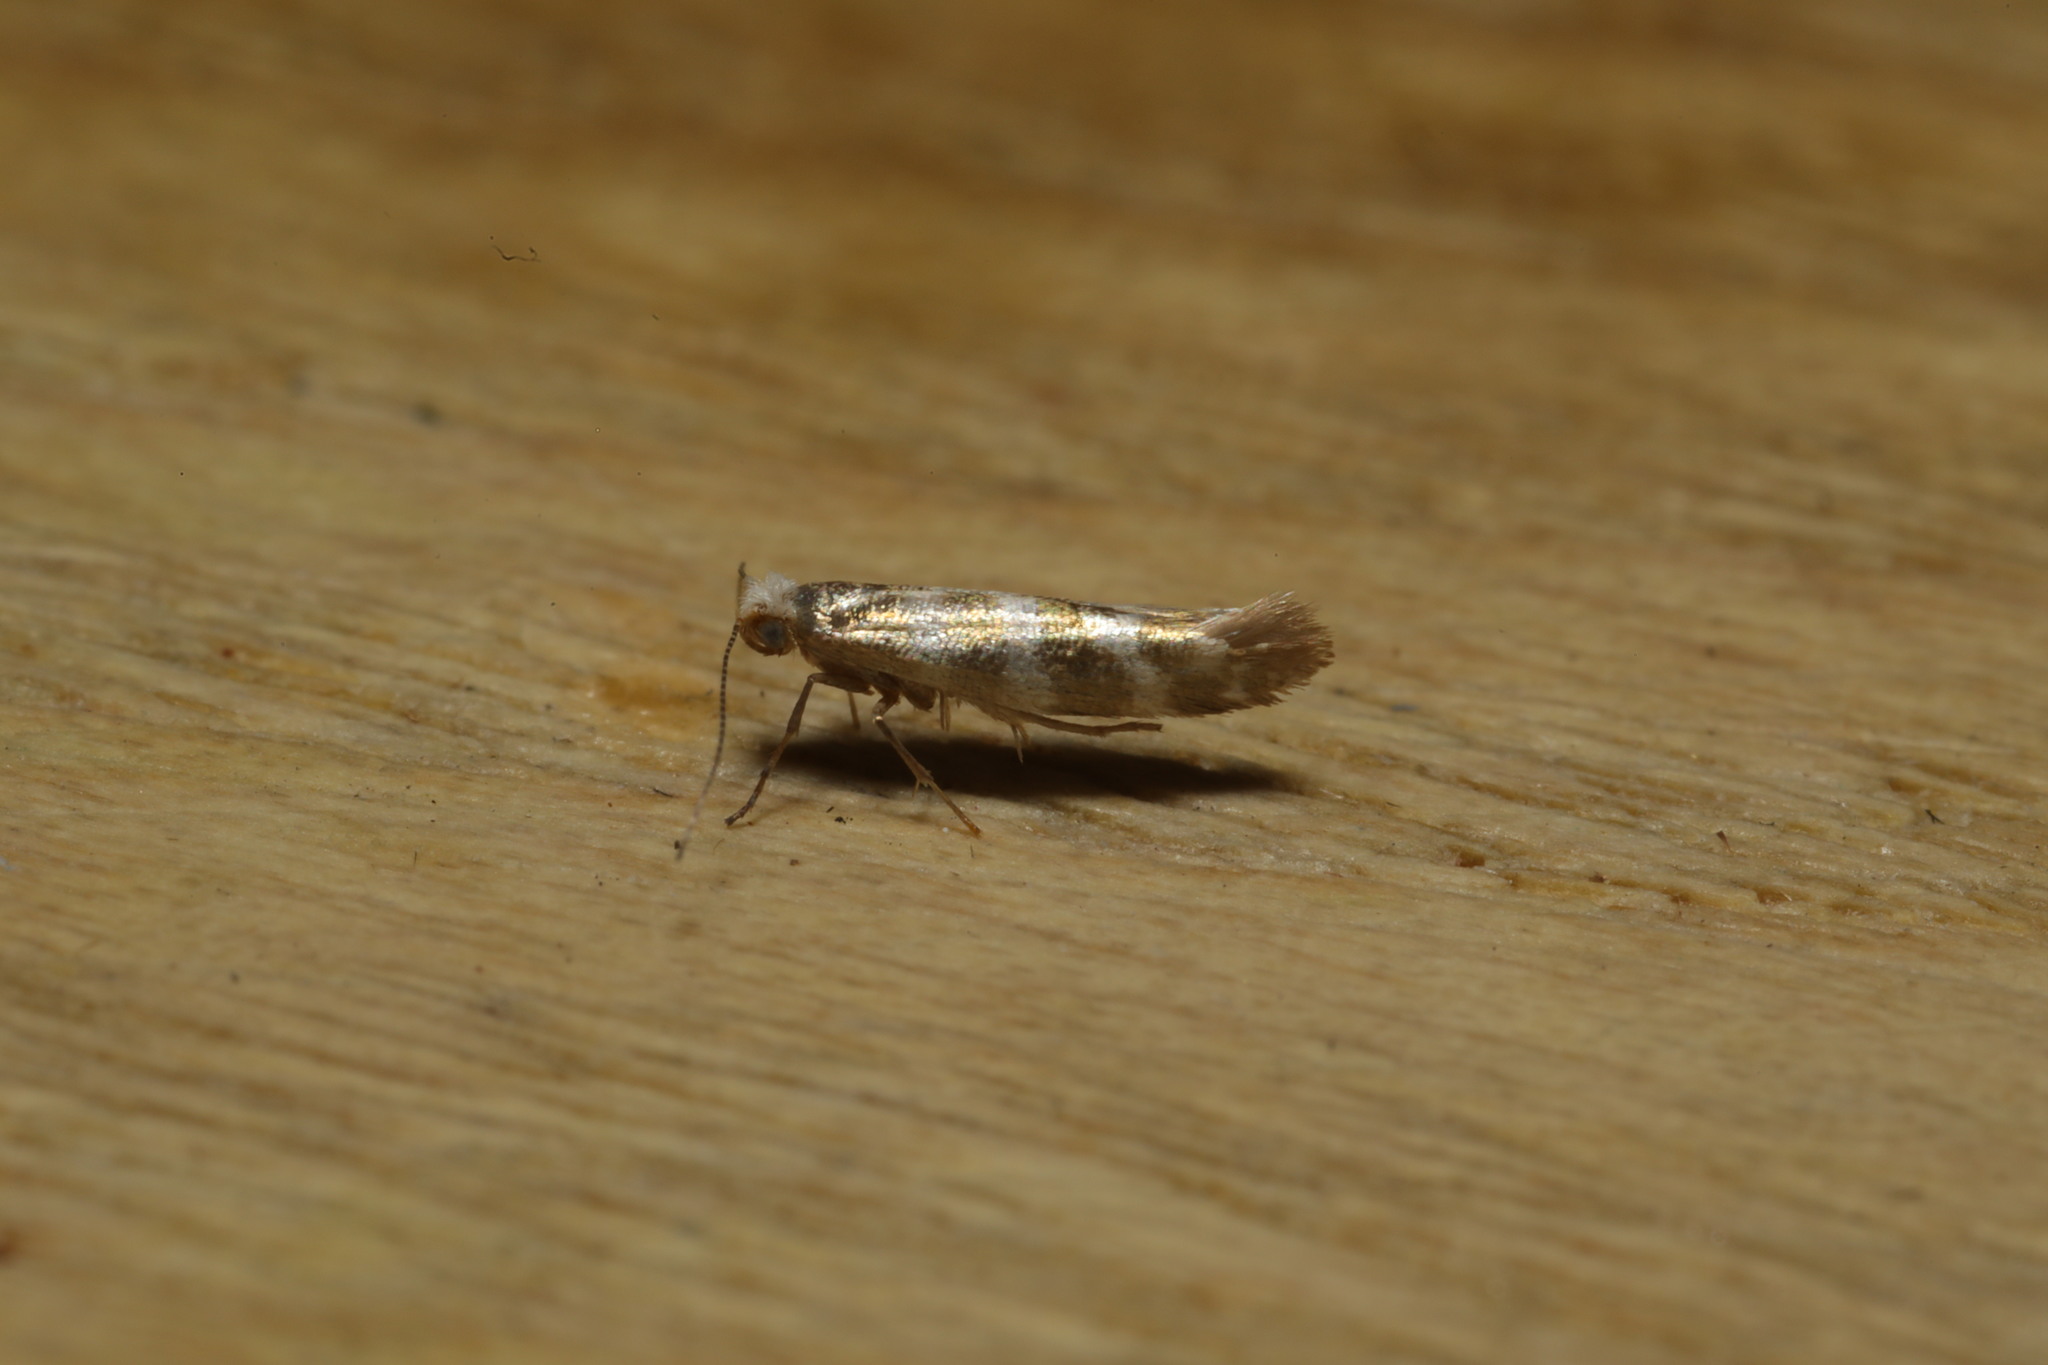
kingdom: Animalia
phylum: Arthropoda
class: Insecta
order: Lepidoptera
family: Argyresthiidae
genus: Argyresthia
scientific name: Argyresthia trifasciata
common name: Triple-barred argent
